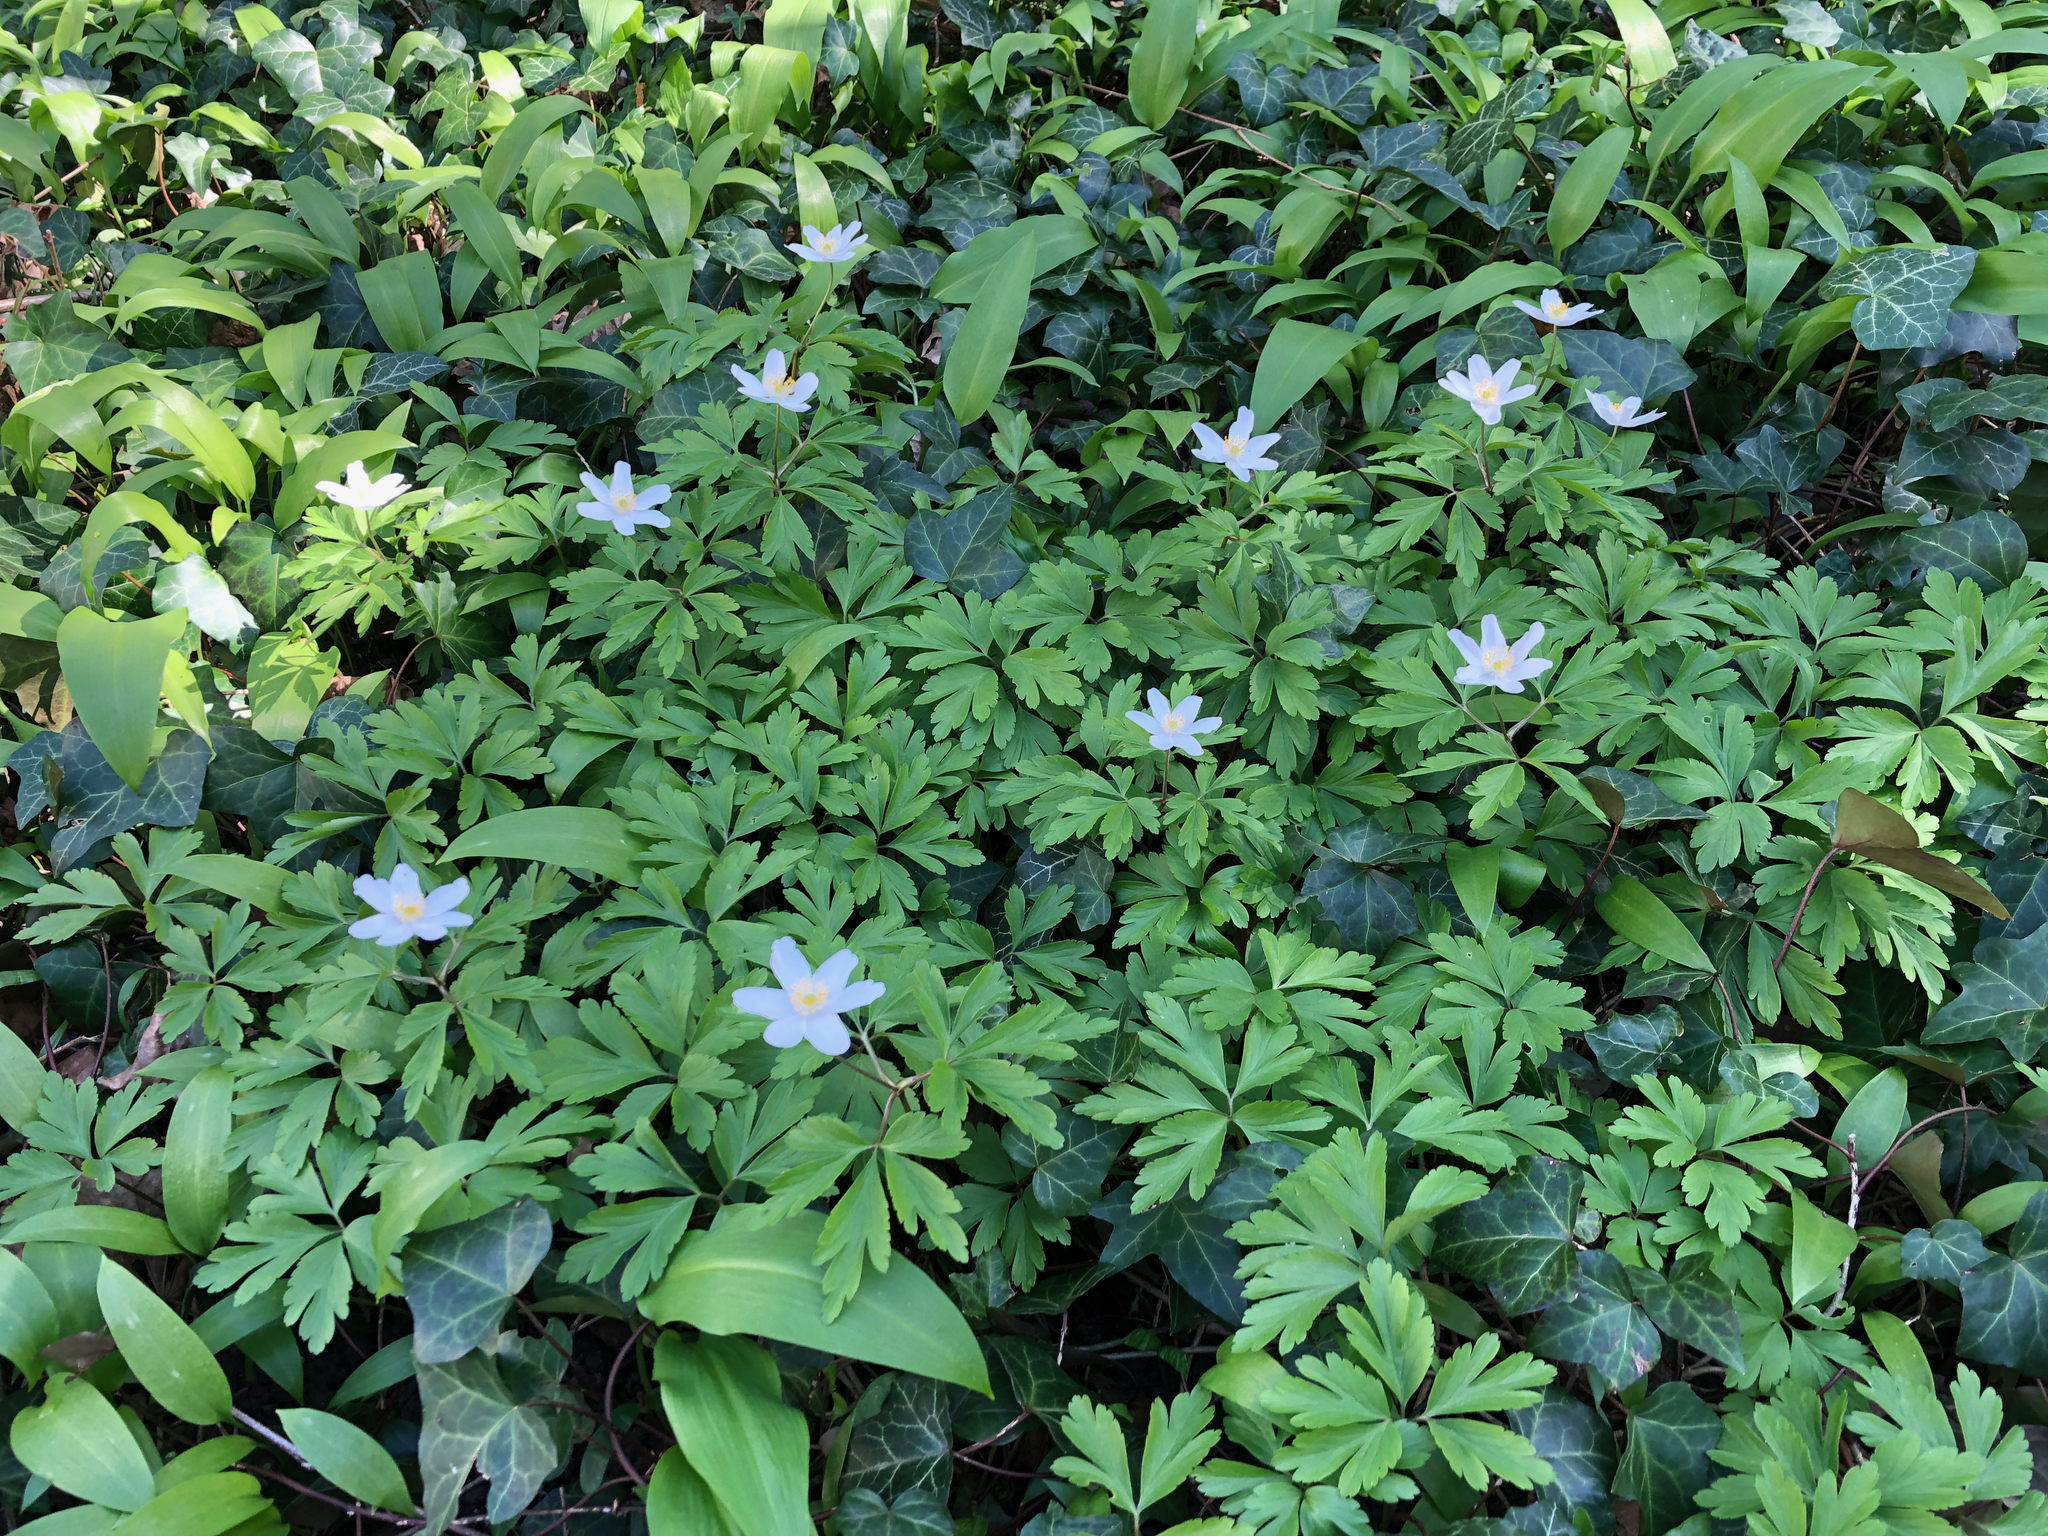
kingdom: Plantae
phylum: Tracheophyta
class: Magnoliopsida
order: Ranunculales
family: Ranunculaceae
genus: Anemone
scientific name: Anemone nemorosa
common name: Wood anemone
